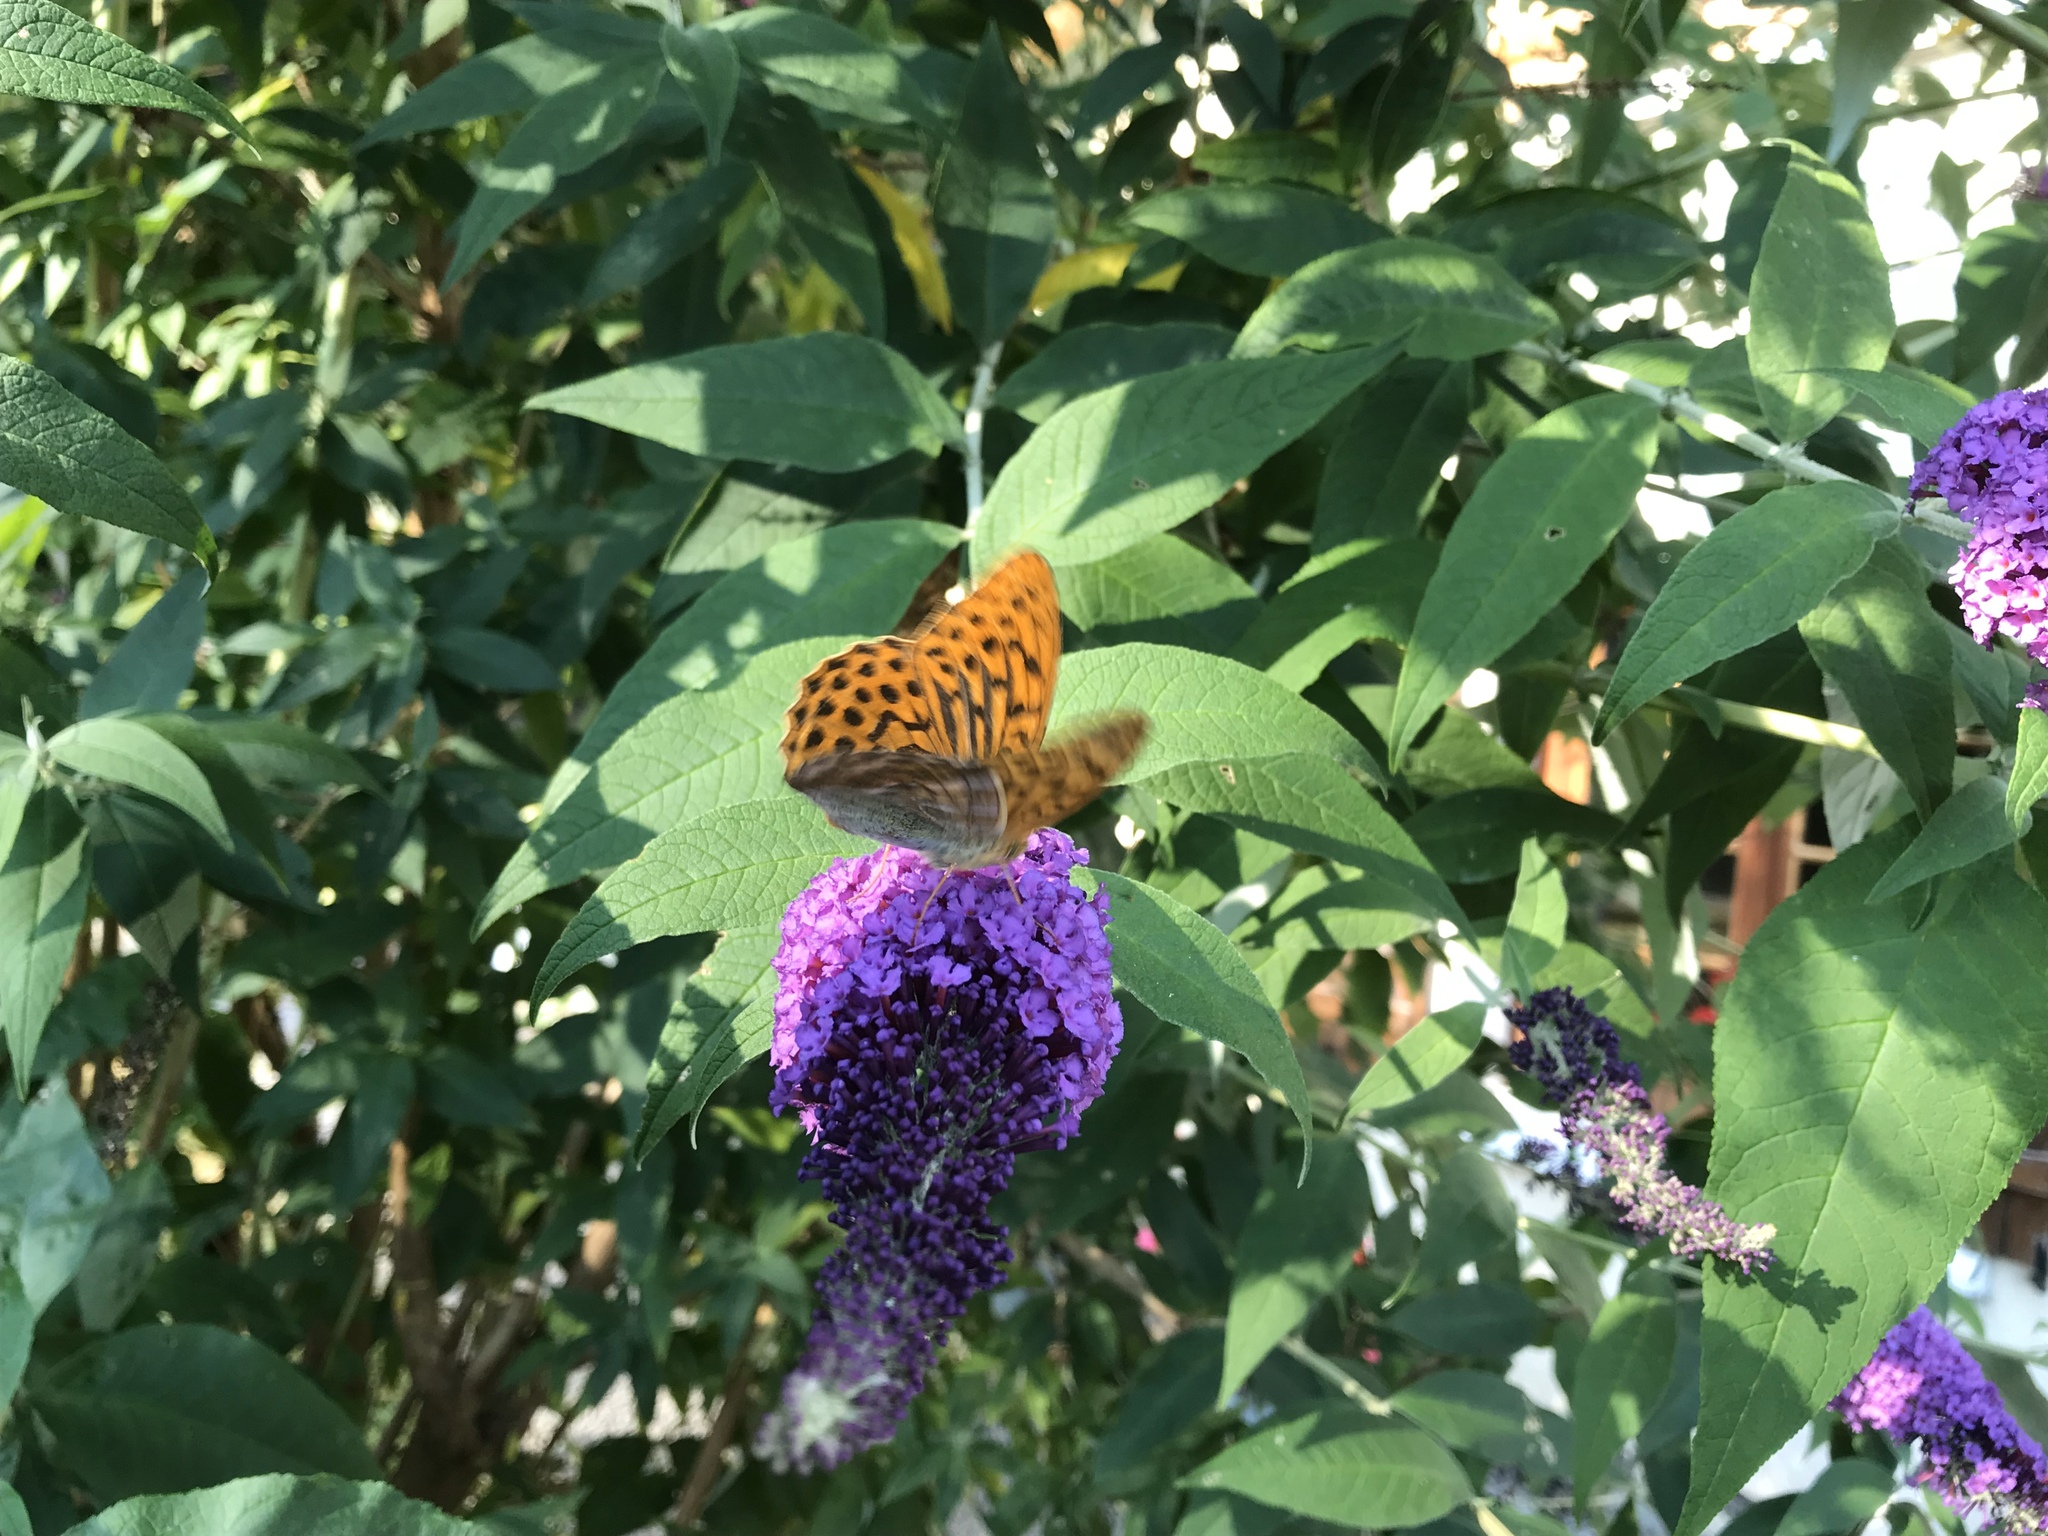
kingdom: Animalia
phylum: Arthropoda
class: Insecta
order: Lepidoptera
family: Nymphalidae
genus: Argynnis
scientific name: Argynnis paphia
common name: Silver-washed fritillary
